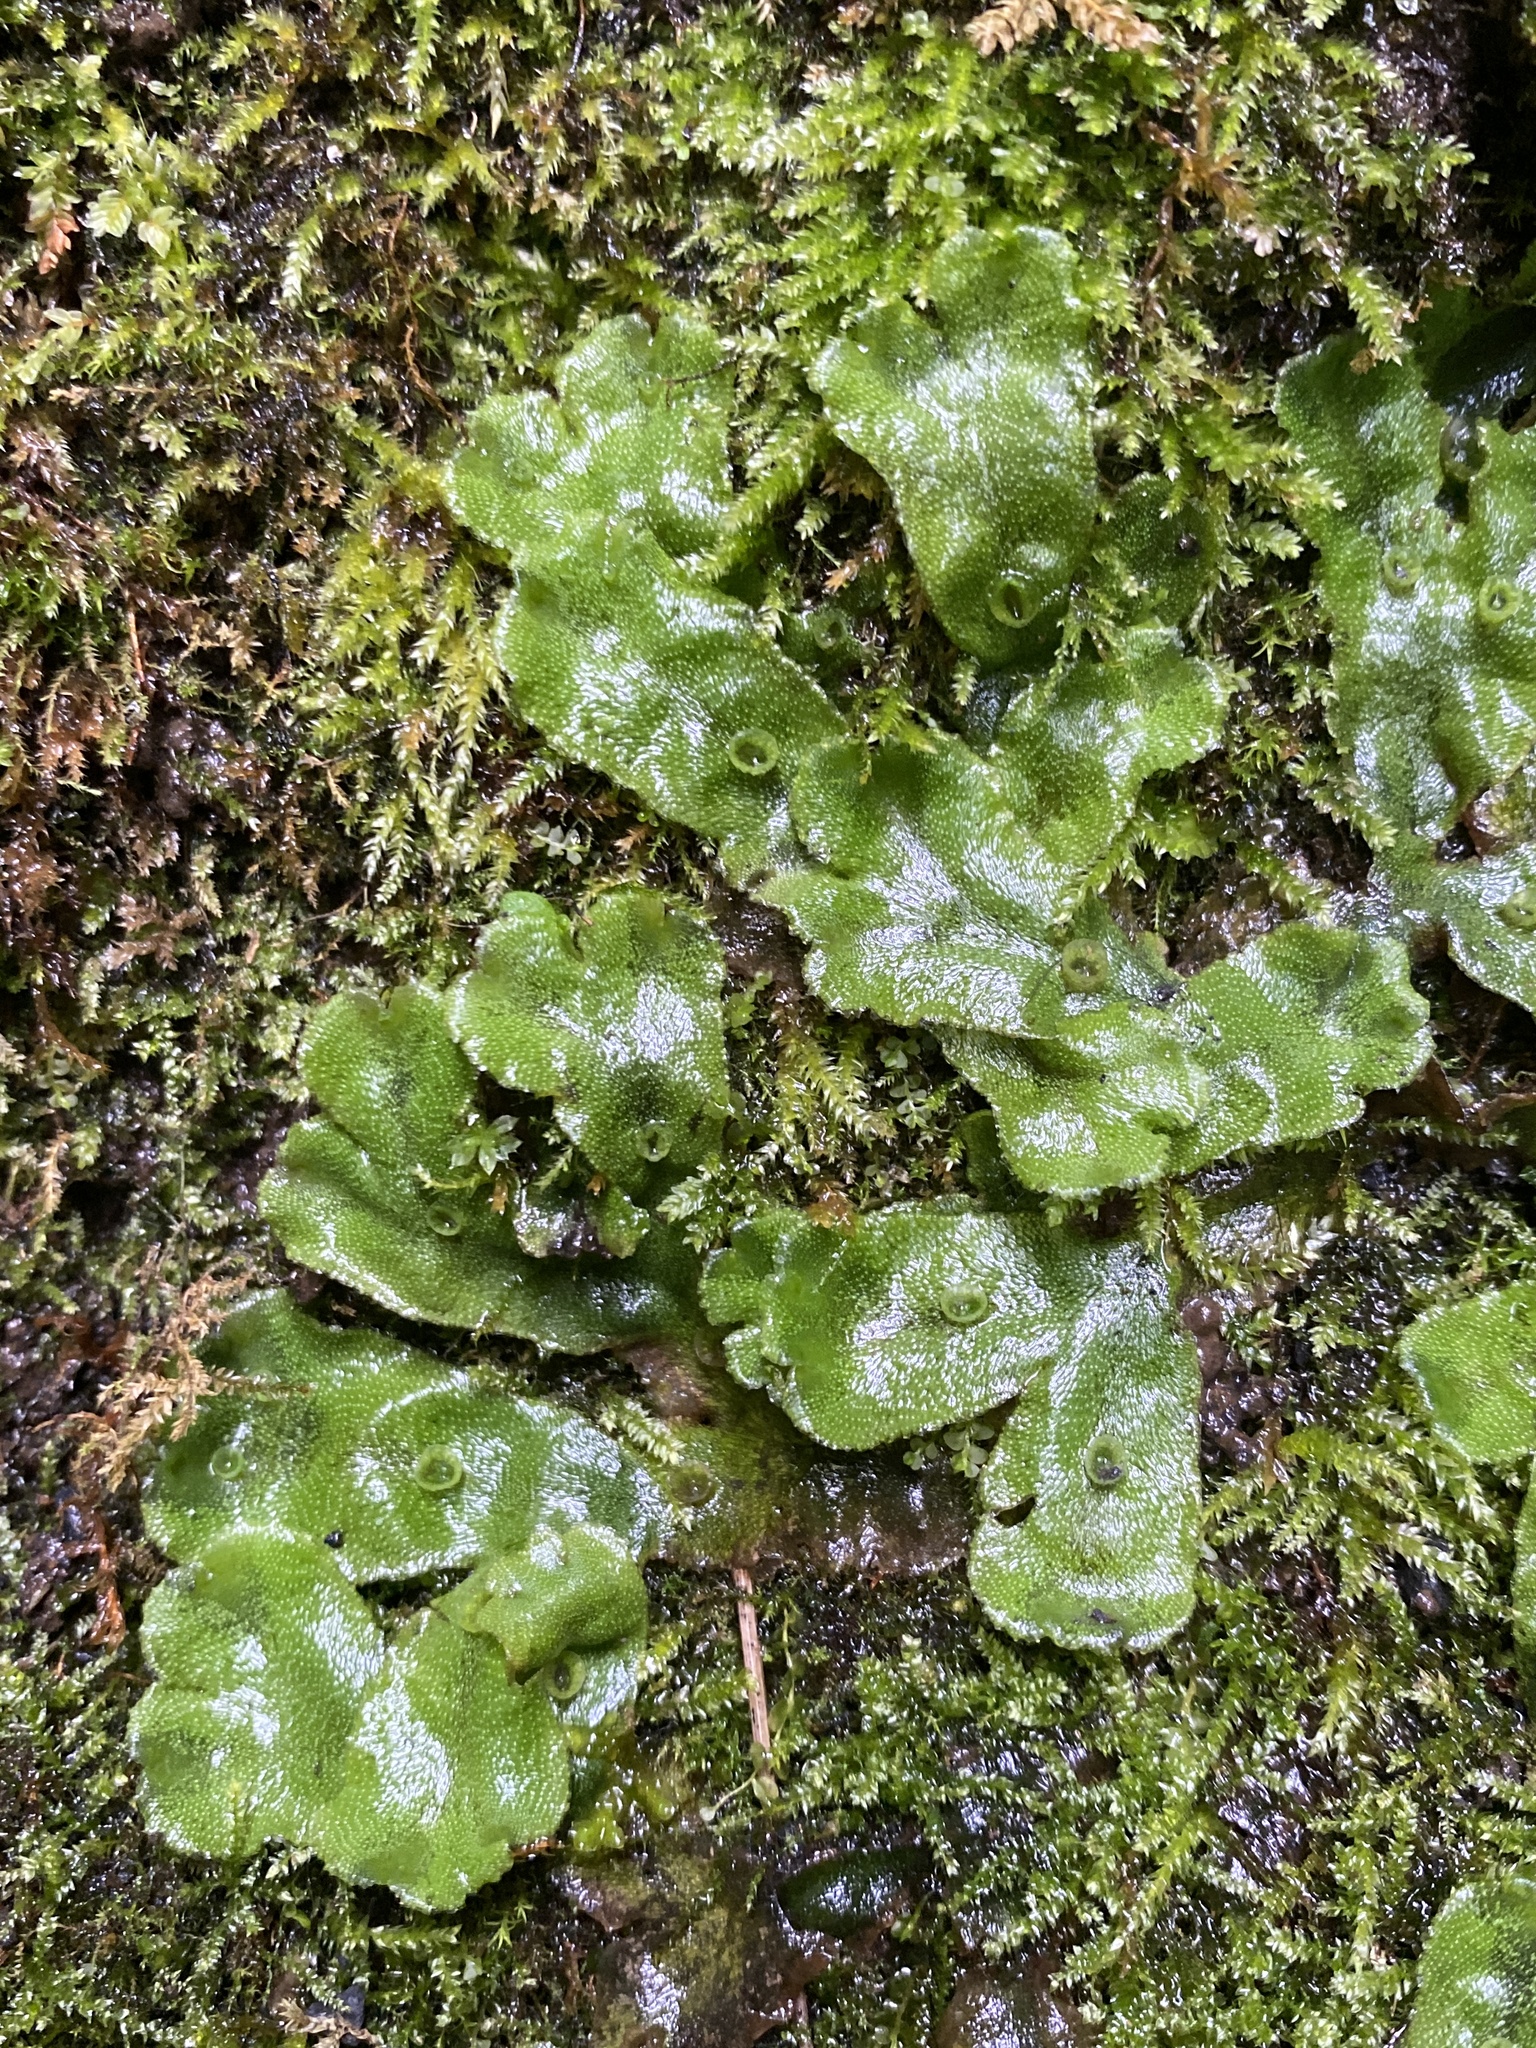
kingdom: Plantae
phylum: Marchantiophyta
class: Marchantiopsida
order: Marchantiales
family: Marchantiaceae
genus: Marchantia
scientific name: Marchantia polymorpha
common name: Common liverwort
